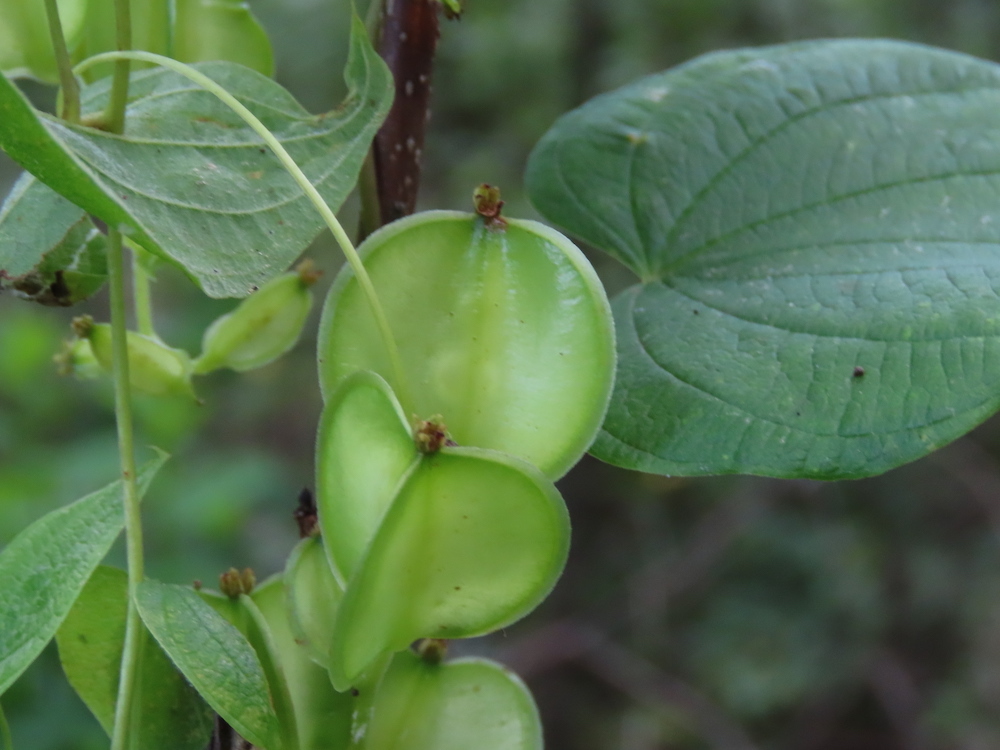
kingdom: Plantae
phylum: Tracheophyta
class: Liliopsida
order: Dioscoreales
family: Dioscoreaceae
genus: Dioscorea
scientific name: Dioscorea villosa
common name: Wild yam
